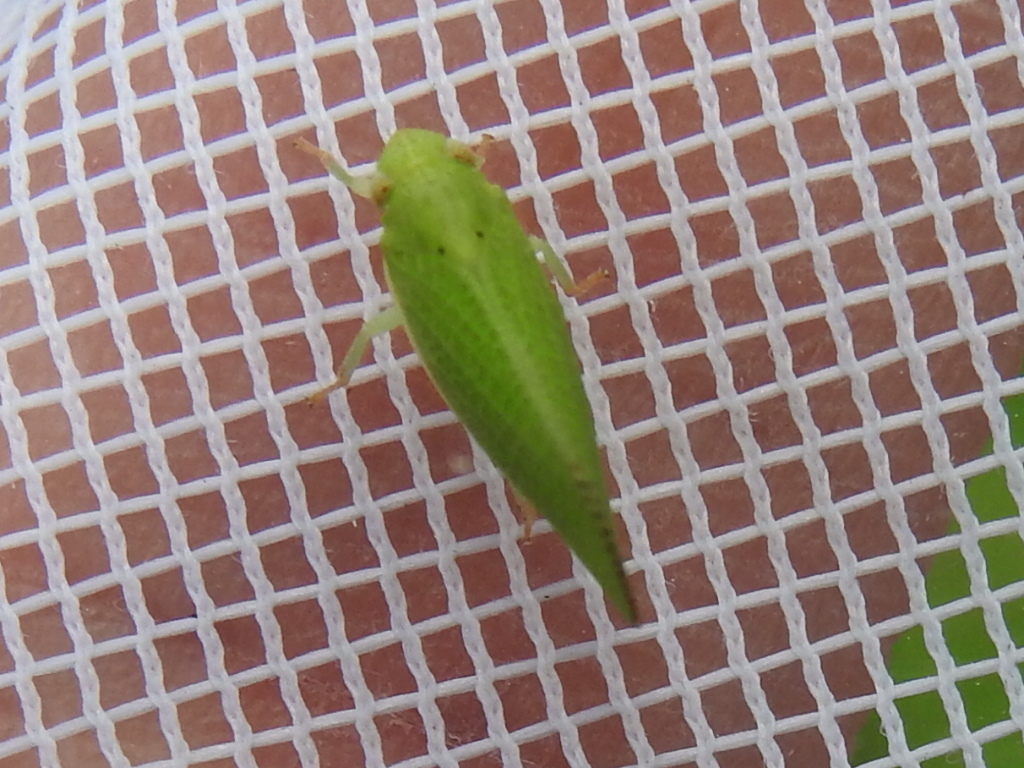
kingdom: Animalia
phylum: Arthropoda
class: Insecta
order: Hemiptera
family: Acanaloniidae
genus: Acanalonia
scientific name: Acanalonia conica
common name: Green cone-headed planthopper
